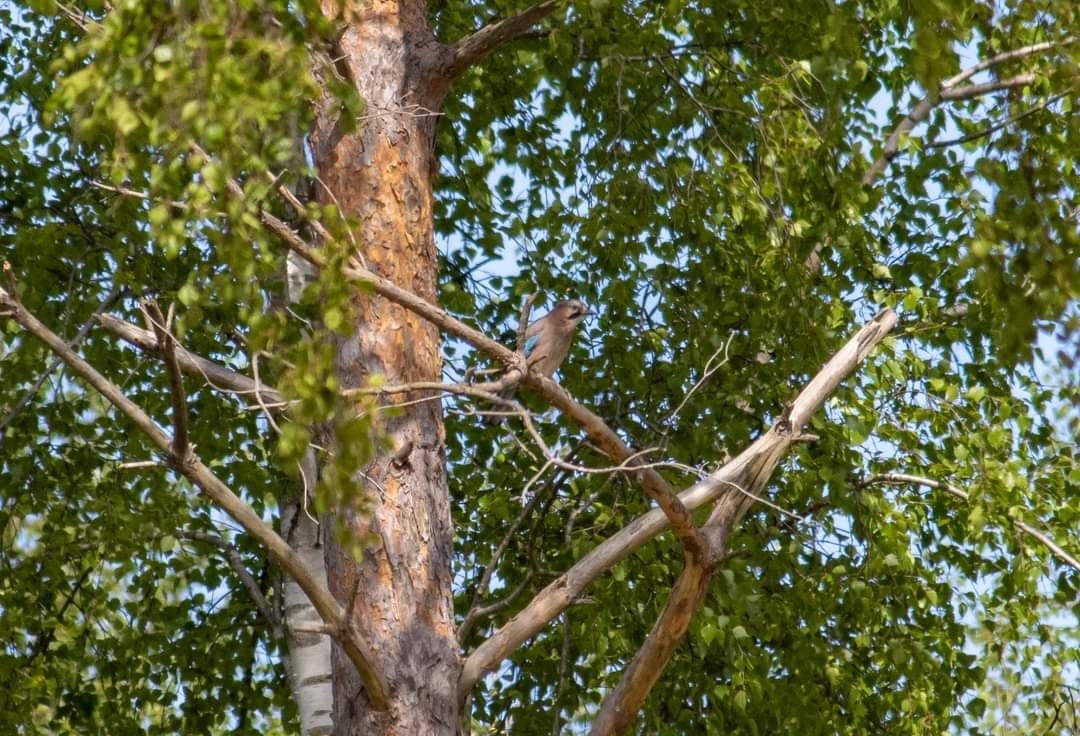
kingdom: Animalia
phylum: Chordata
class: Aves
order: Passeriformes
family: Corvidae
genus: Garrulus
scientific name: Garrulus glandarius
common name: Eurasian jay
